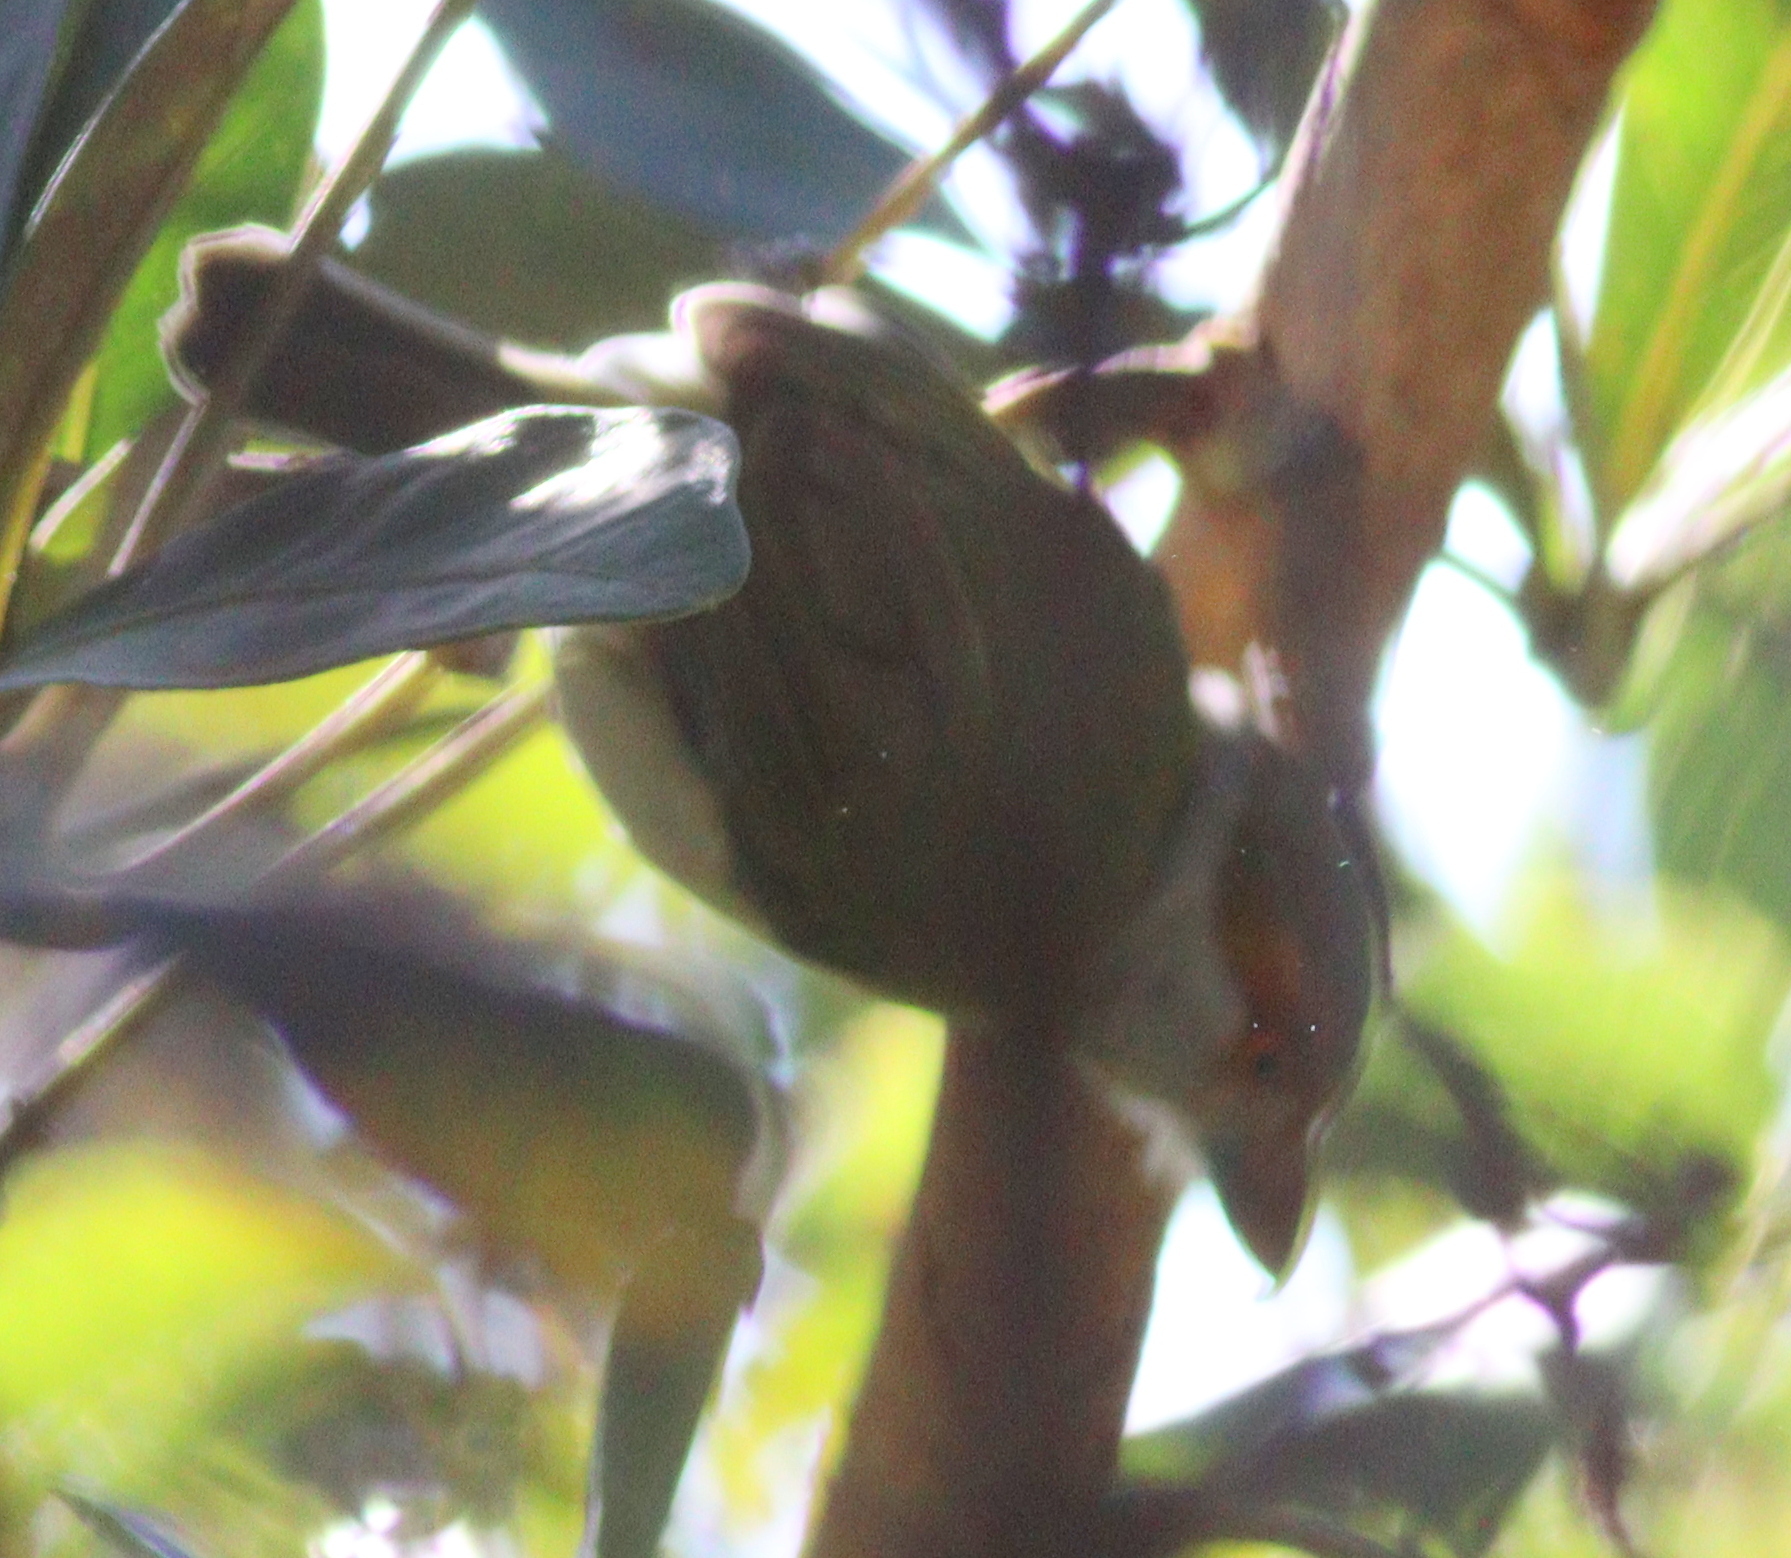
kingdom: Animalia
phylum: Chordata
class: Aves
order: Passeriformes
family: Vireonidae
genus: Cyclarhis
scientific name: Cyclarhis gujanensis
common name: Rufous-browed peppershrike
